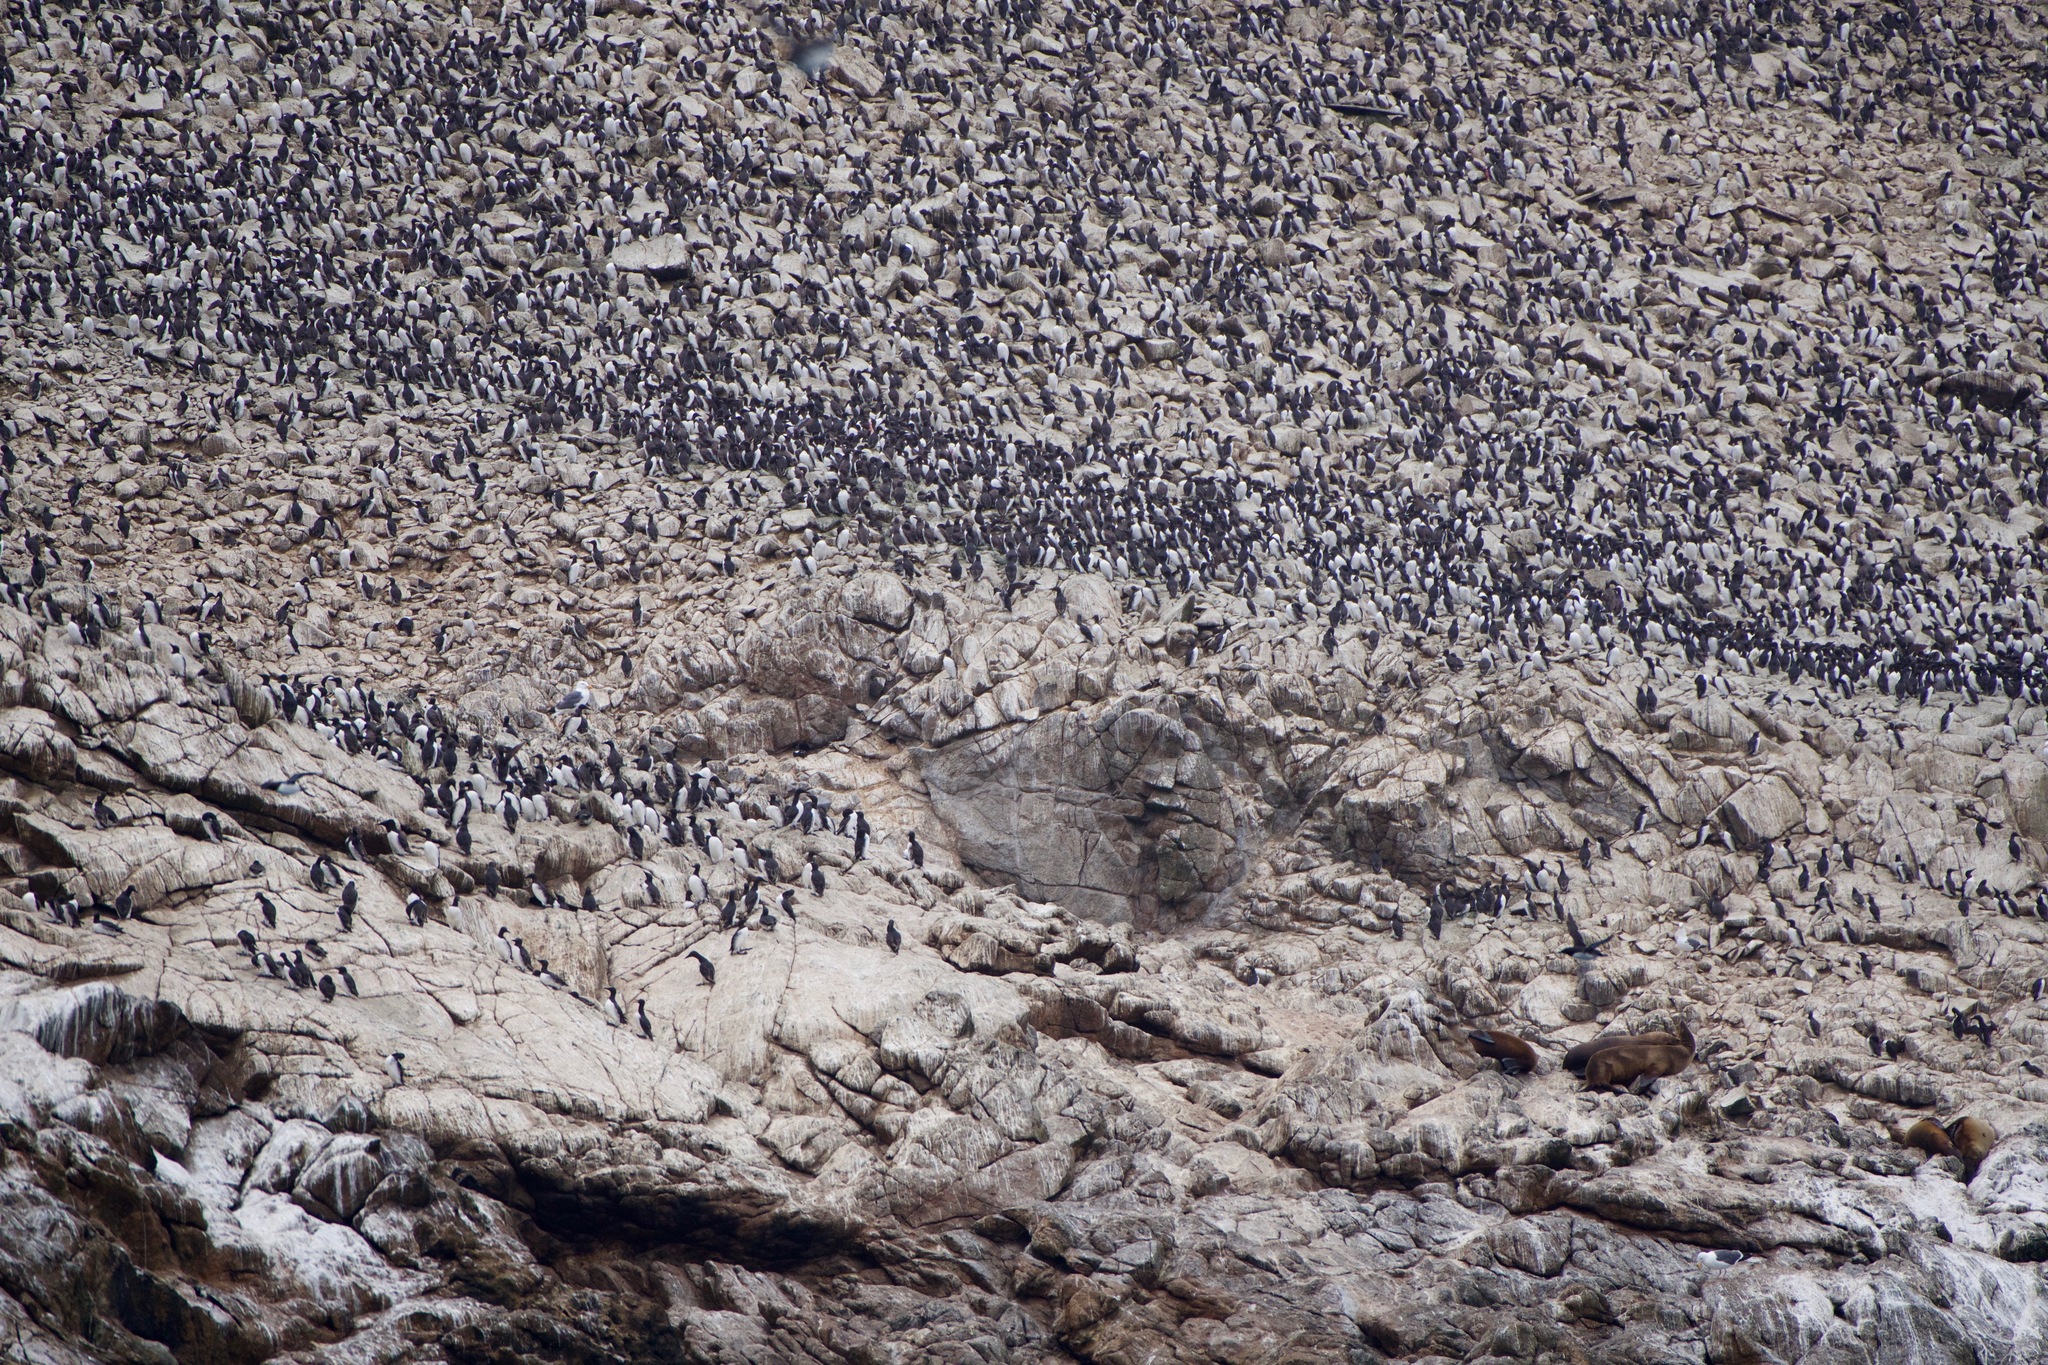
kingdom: Animalia
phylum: Chordata
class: Aves
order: Charadriiformes
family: Alcidae
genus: Uria
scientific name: Uria aalge
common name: Common murre
